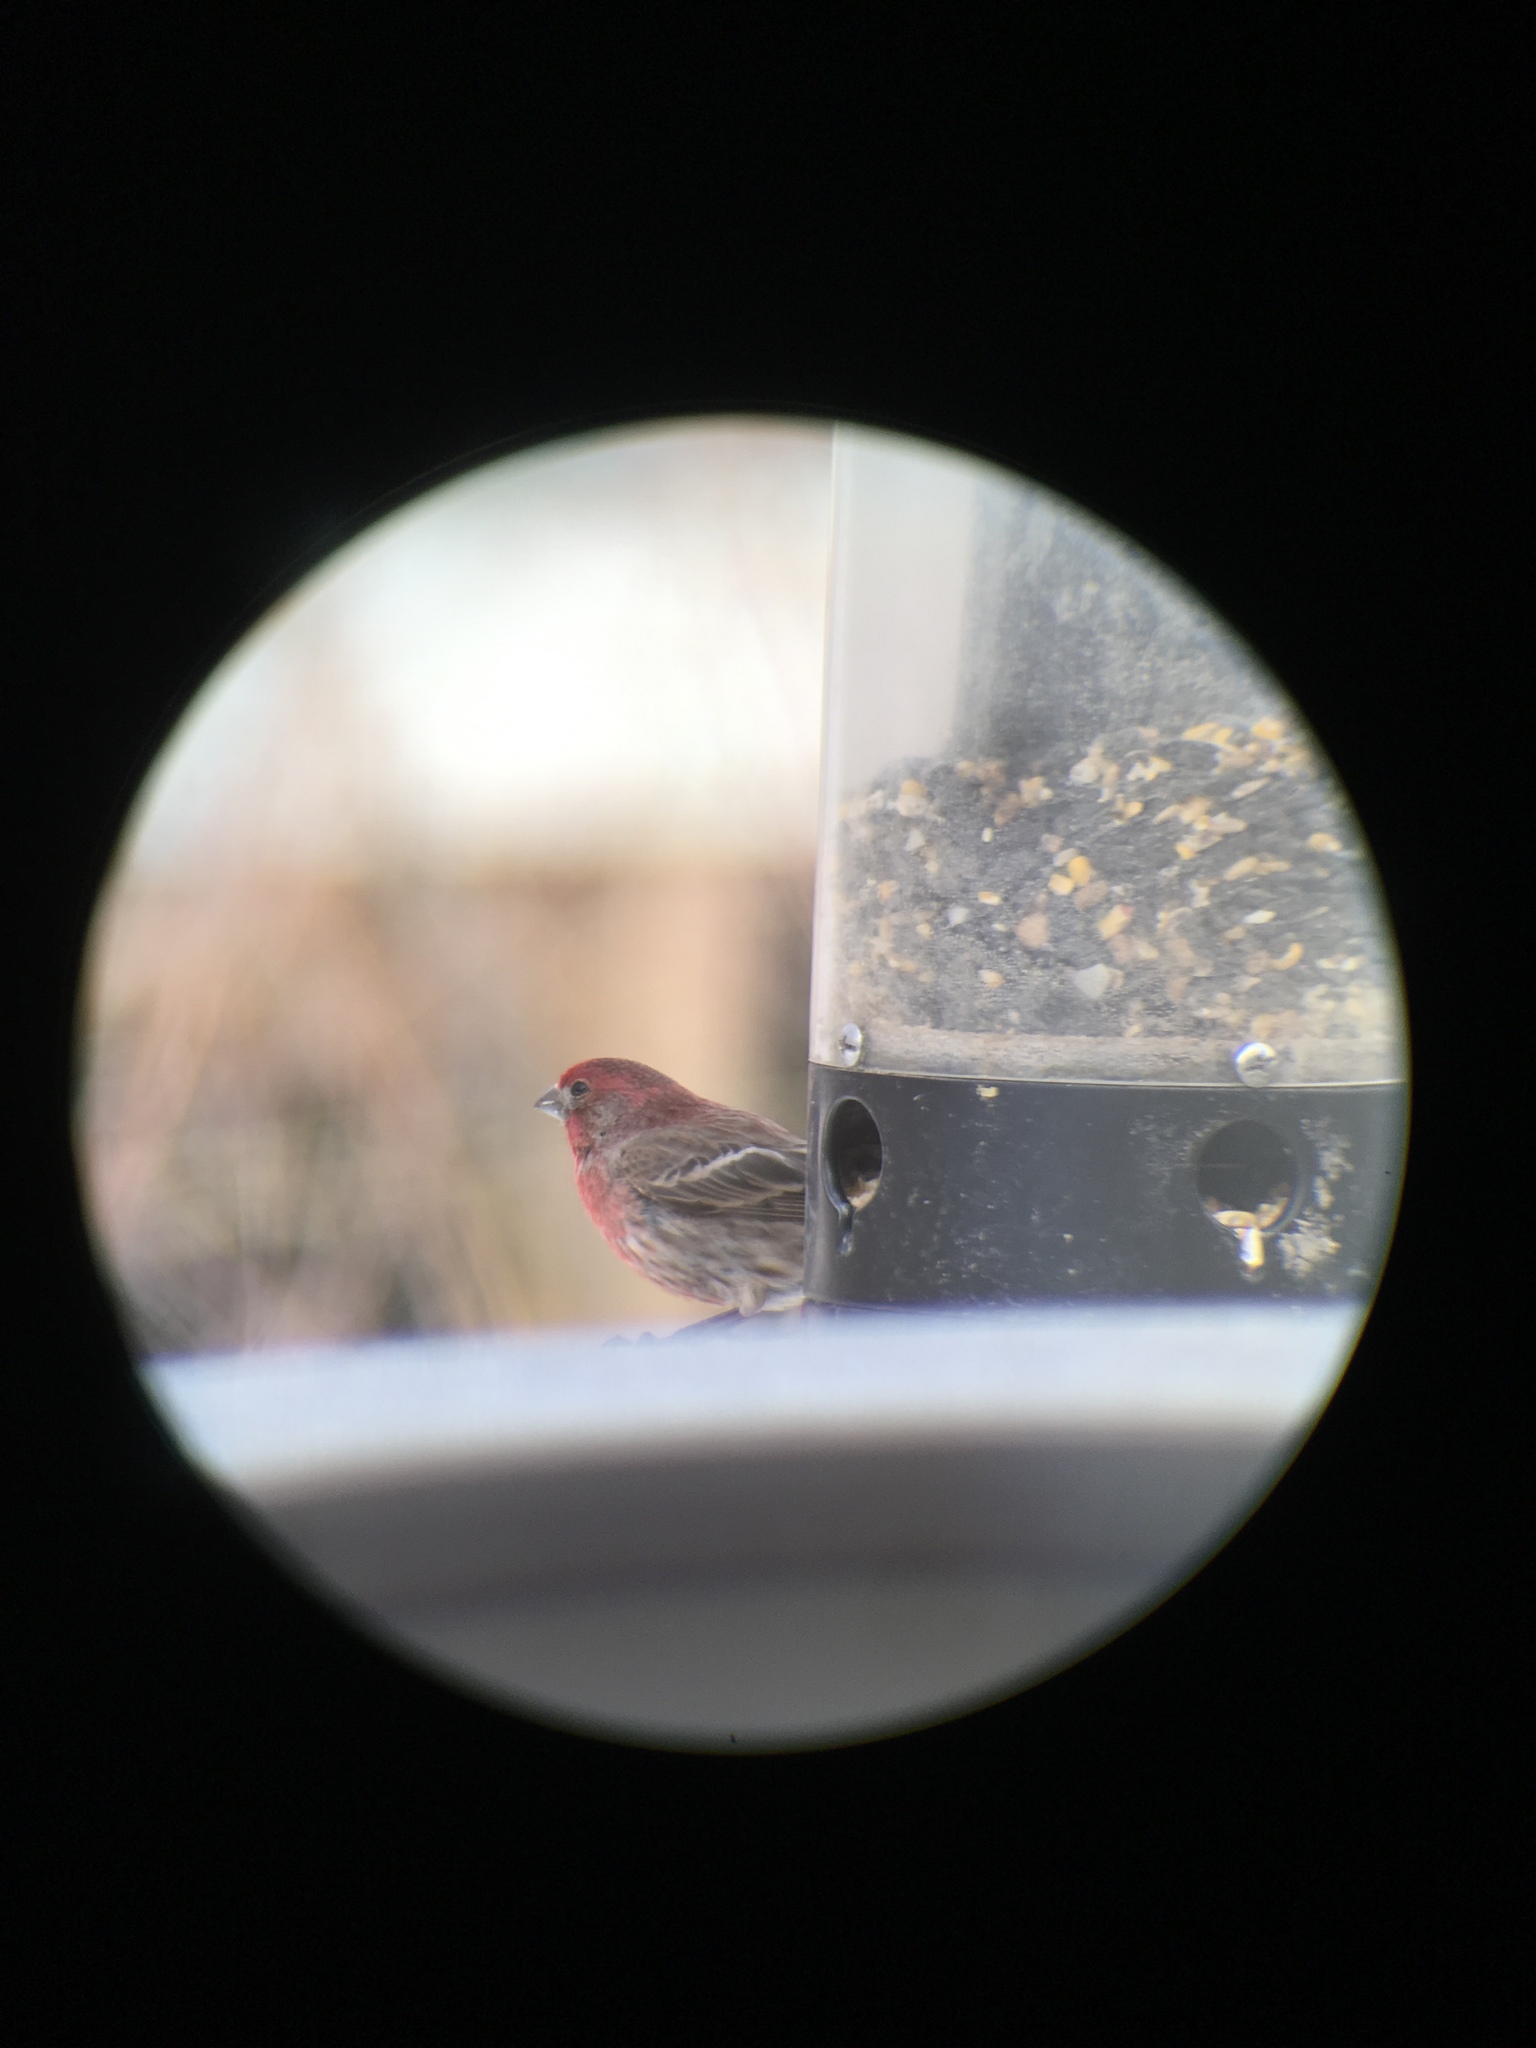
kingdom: Animalia
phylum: Chordata
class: Aves
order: Passeriformes
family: Fringillidae
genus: Haemorhous
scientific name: Haemorhous mexicanus
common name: House finch
